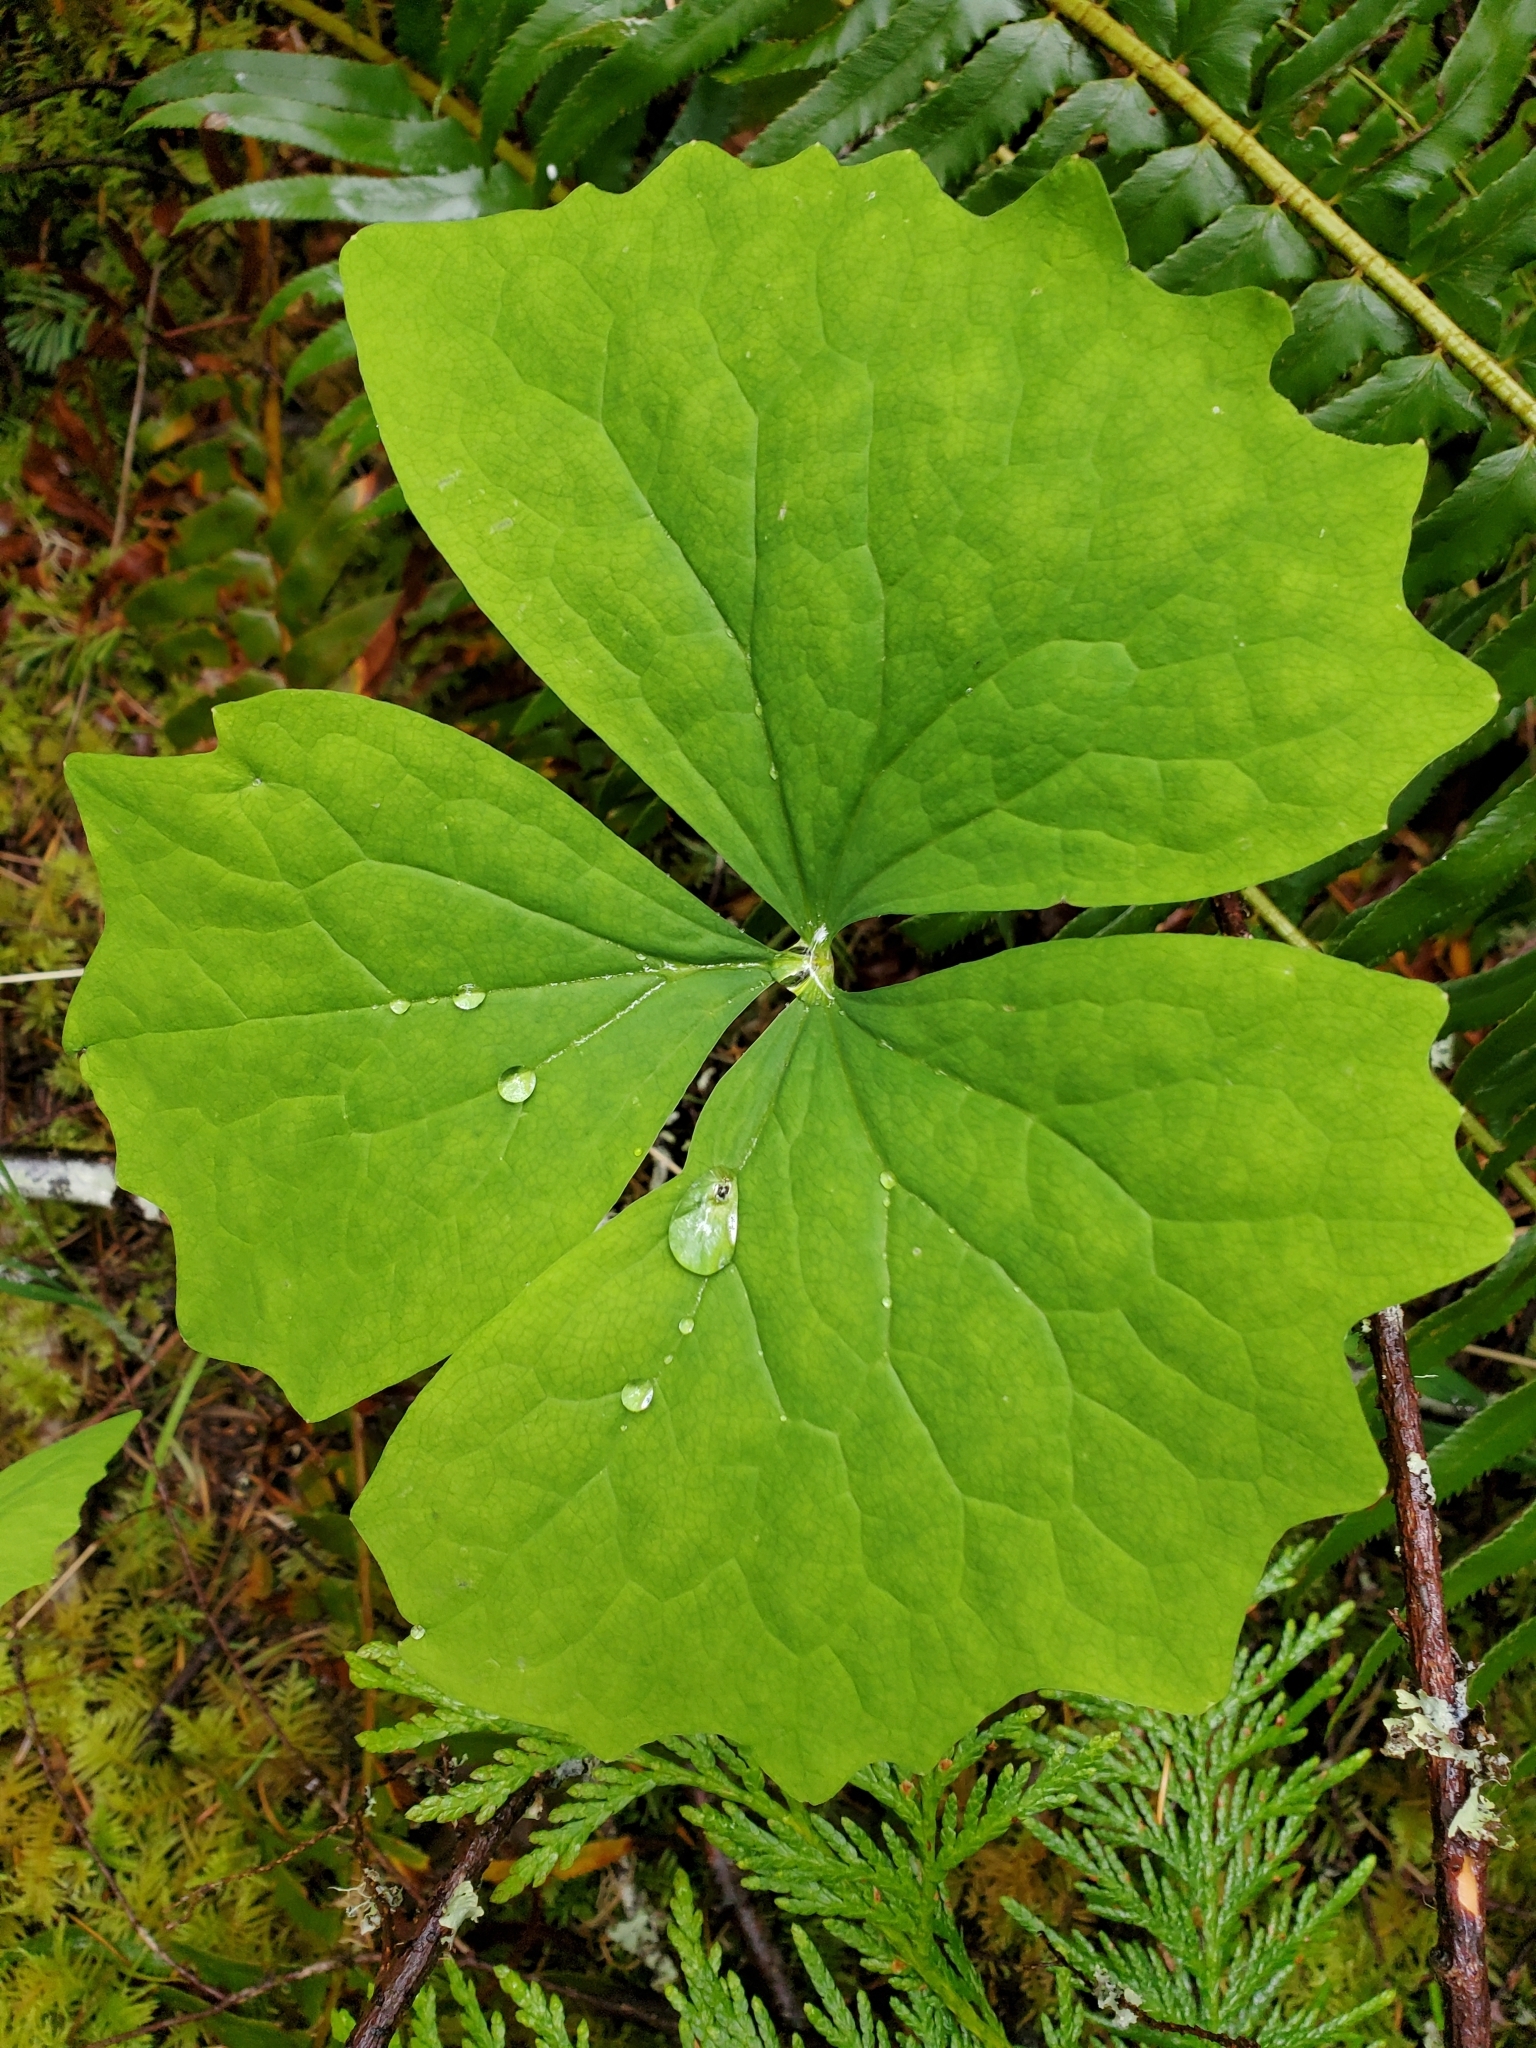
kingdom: Plantae
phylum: Tracheophyta
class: Magnoliopsida
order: Ranunculales
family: Berberidaceae
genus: Achlys
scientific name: Achlys triphylla
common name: Vanilla-leaf
